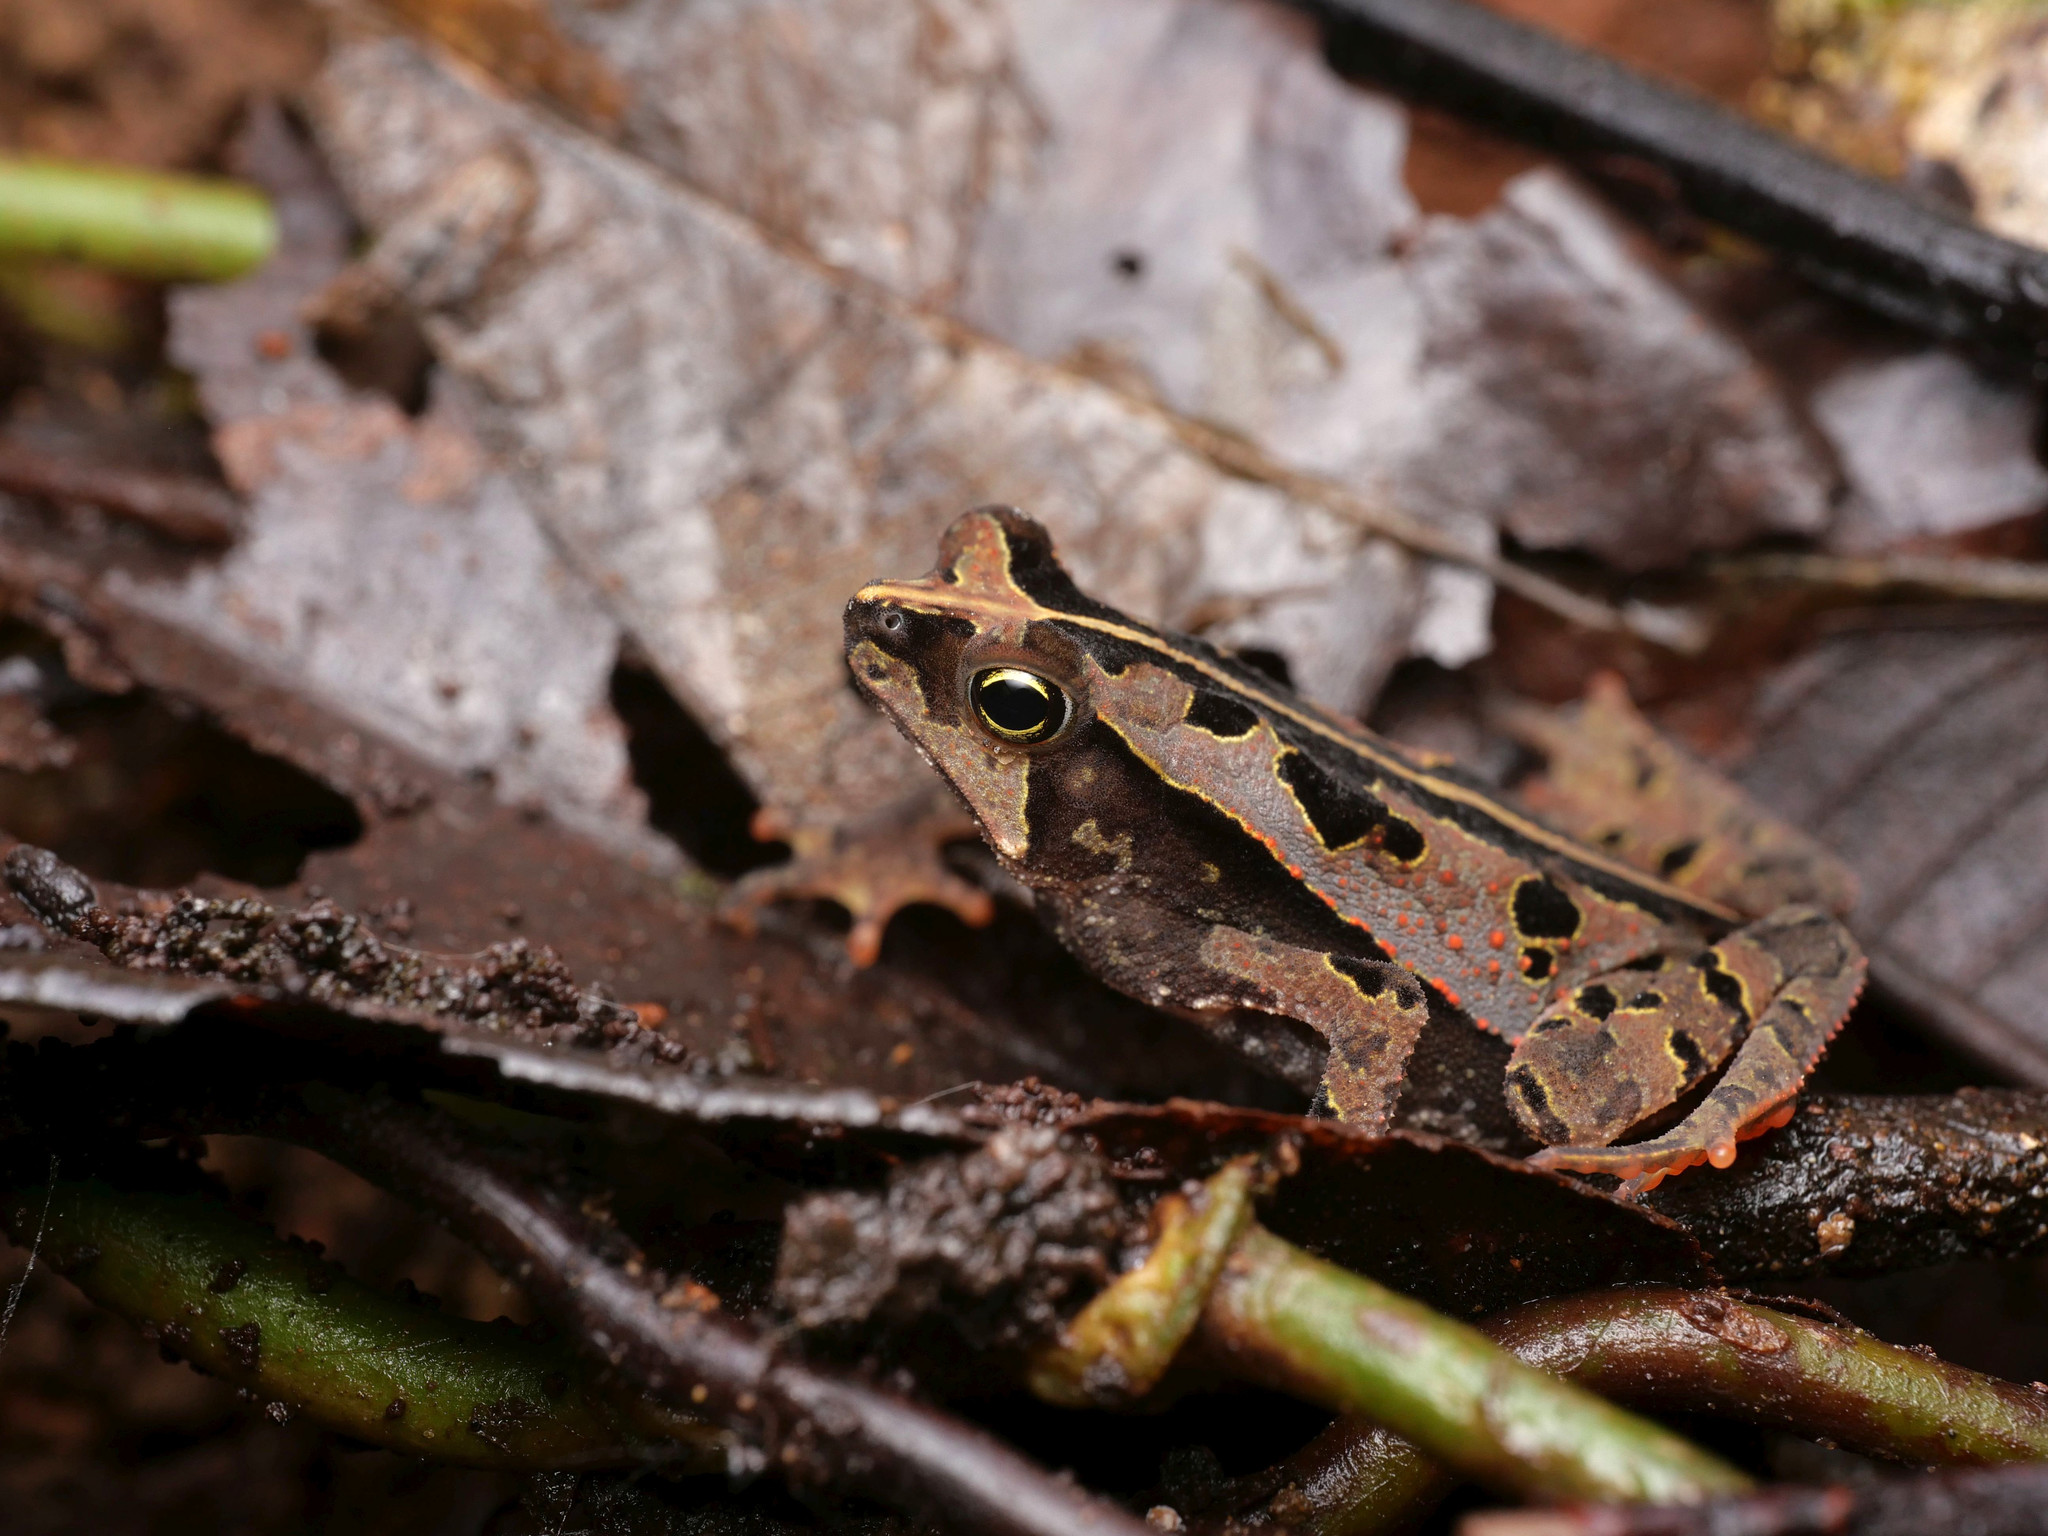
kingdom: Animalia
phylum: Chordata
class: Amphibia
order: Anura
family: Bufonidae
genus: Rhinella
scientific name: Rhinella alata
